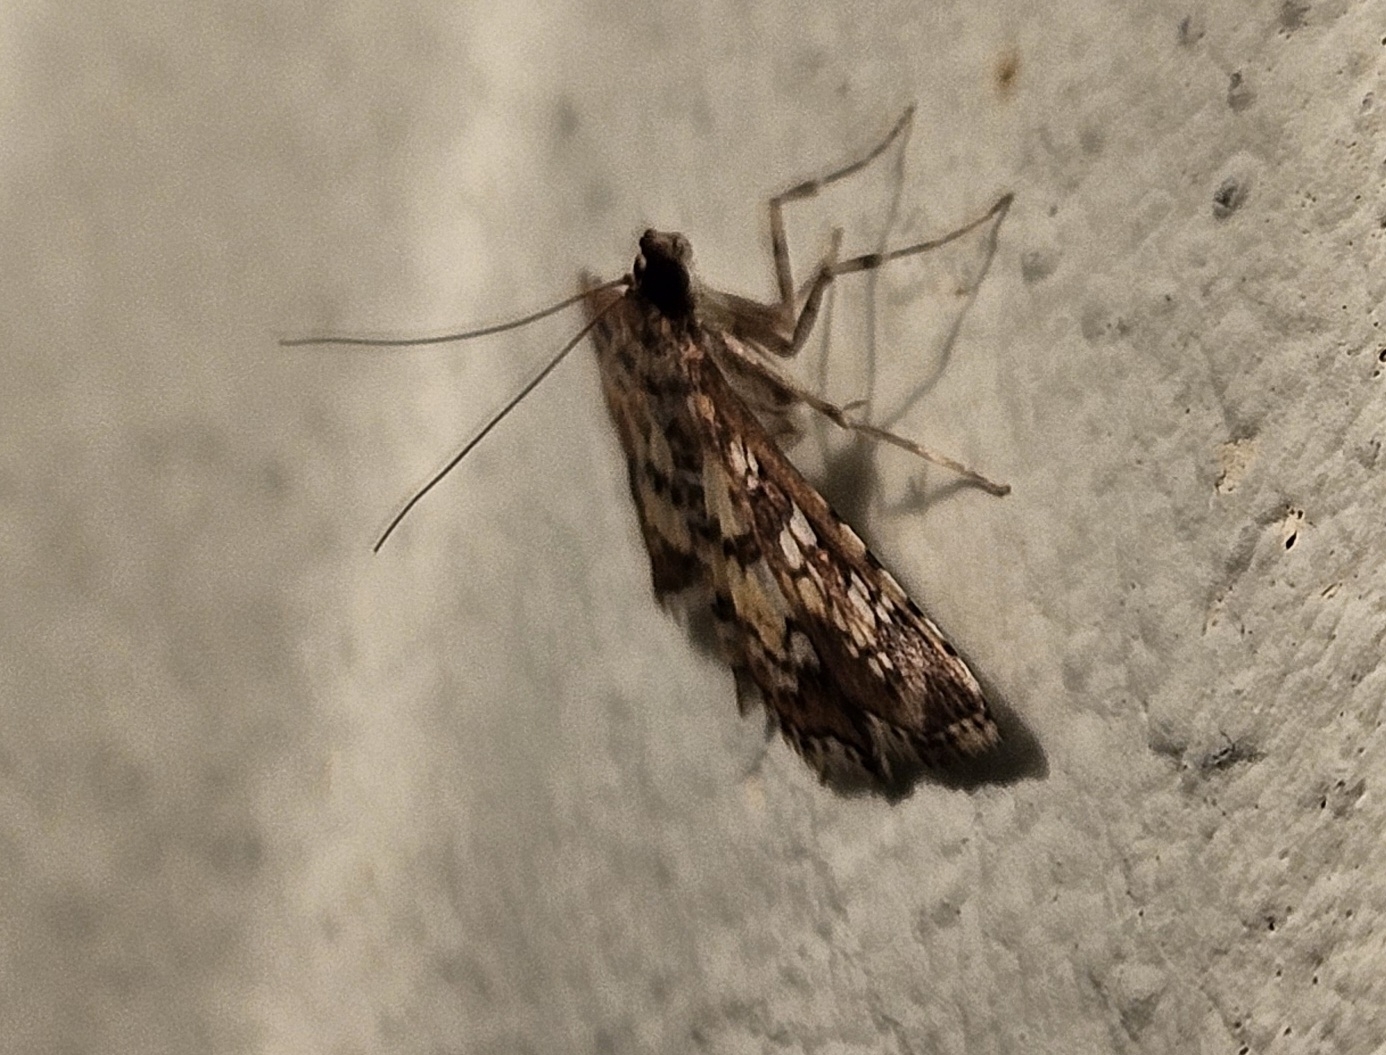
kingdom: Animalia
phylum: Arthropoda
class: Insecta
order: Lepidoptera
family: Crambidae
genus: Samea
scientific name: Samea ecclesialis
